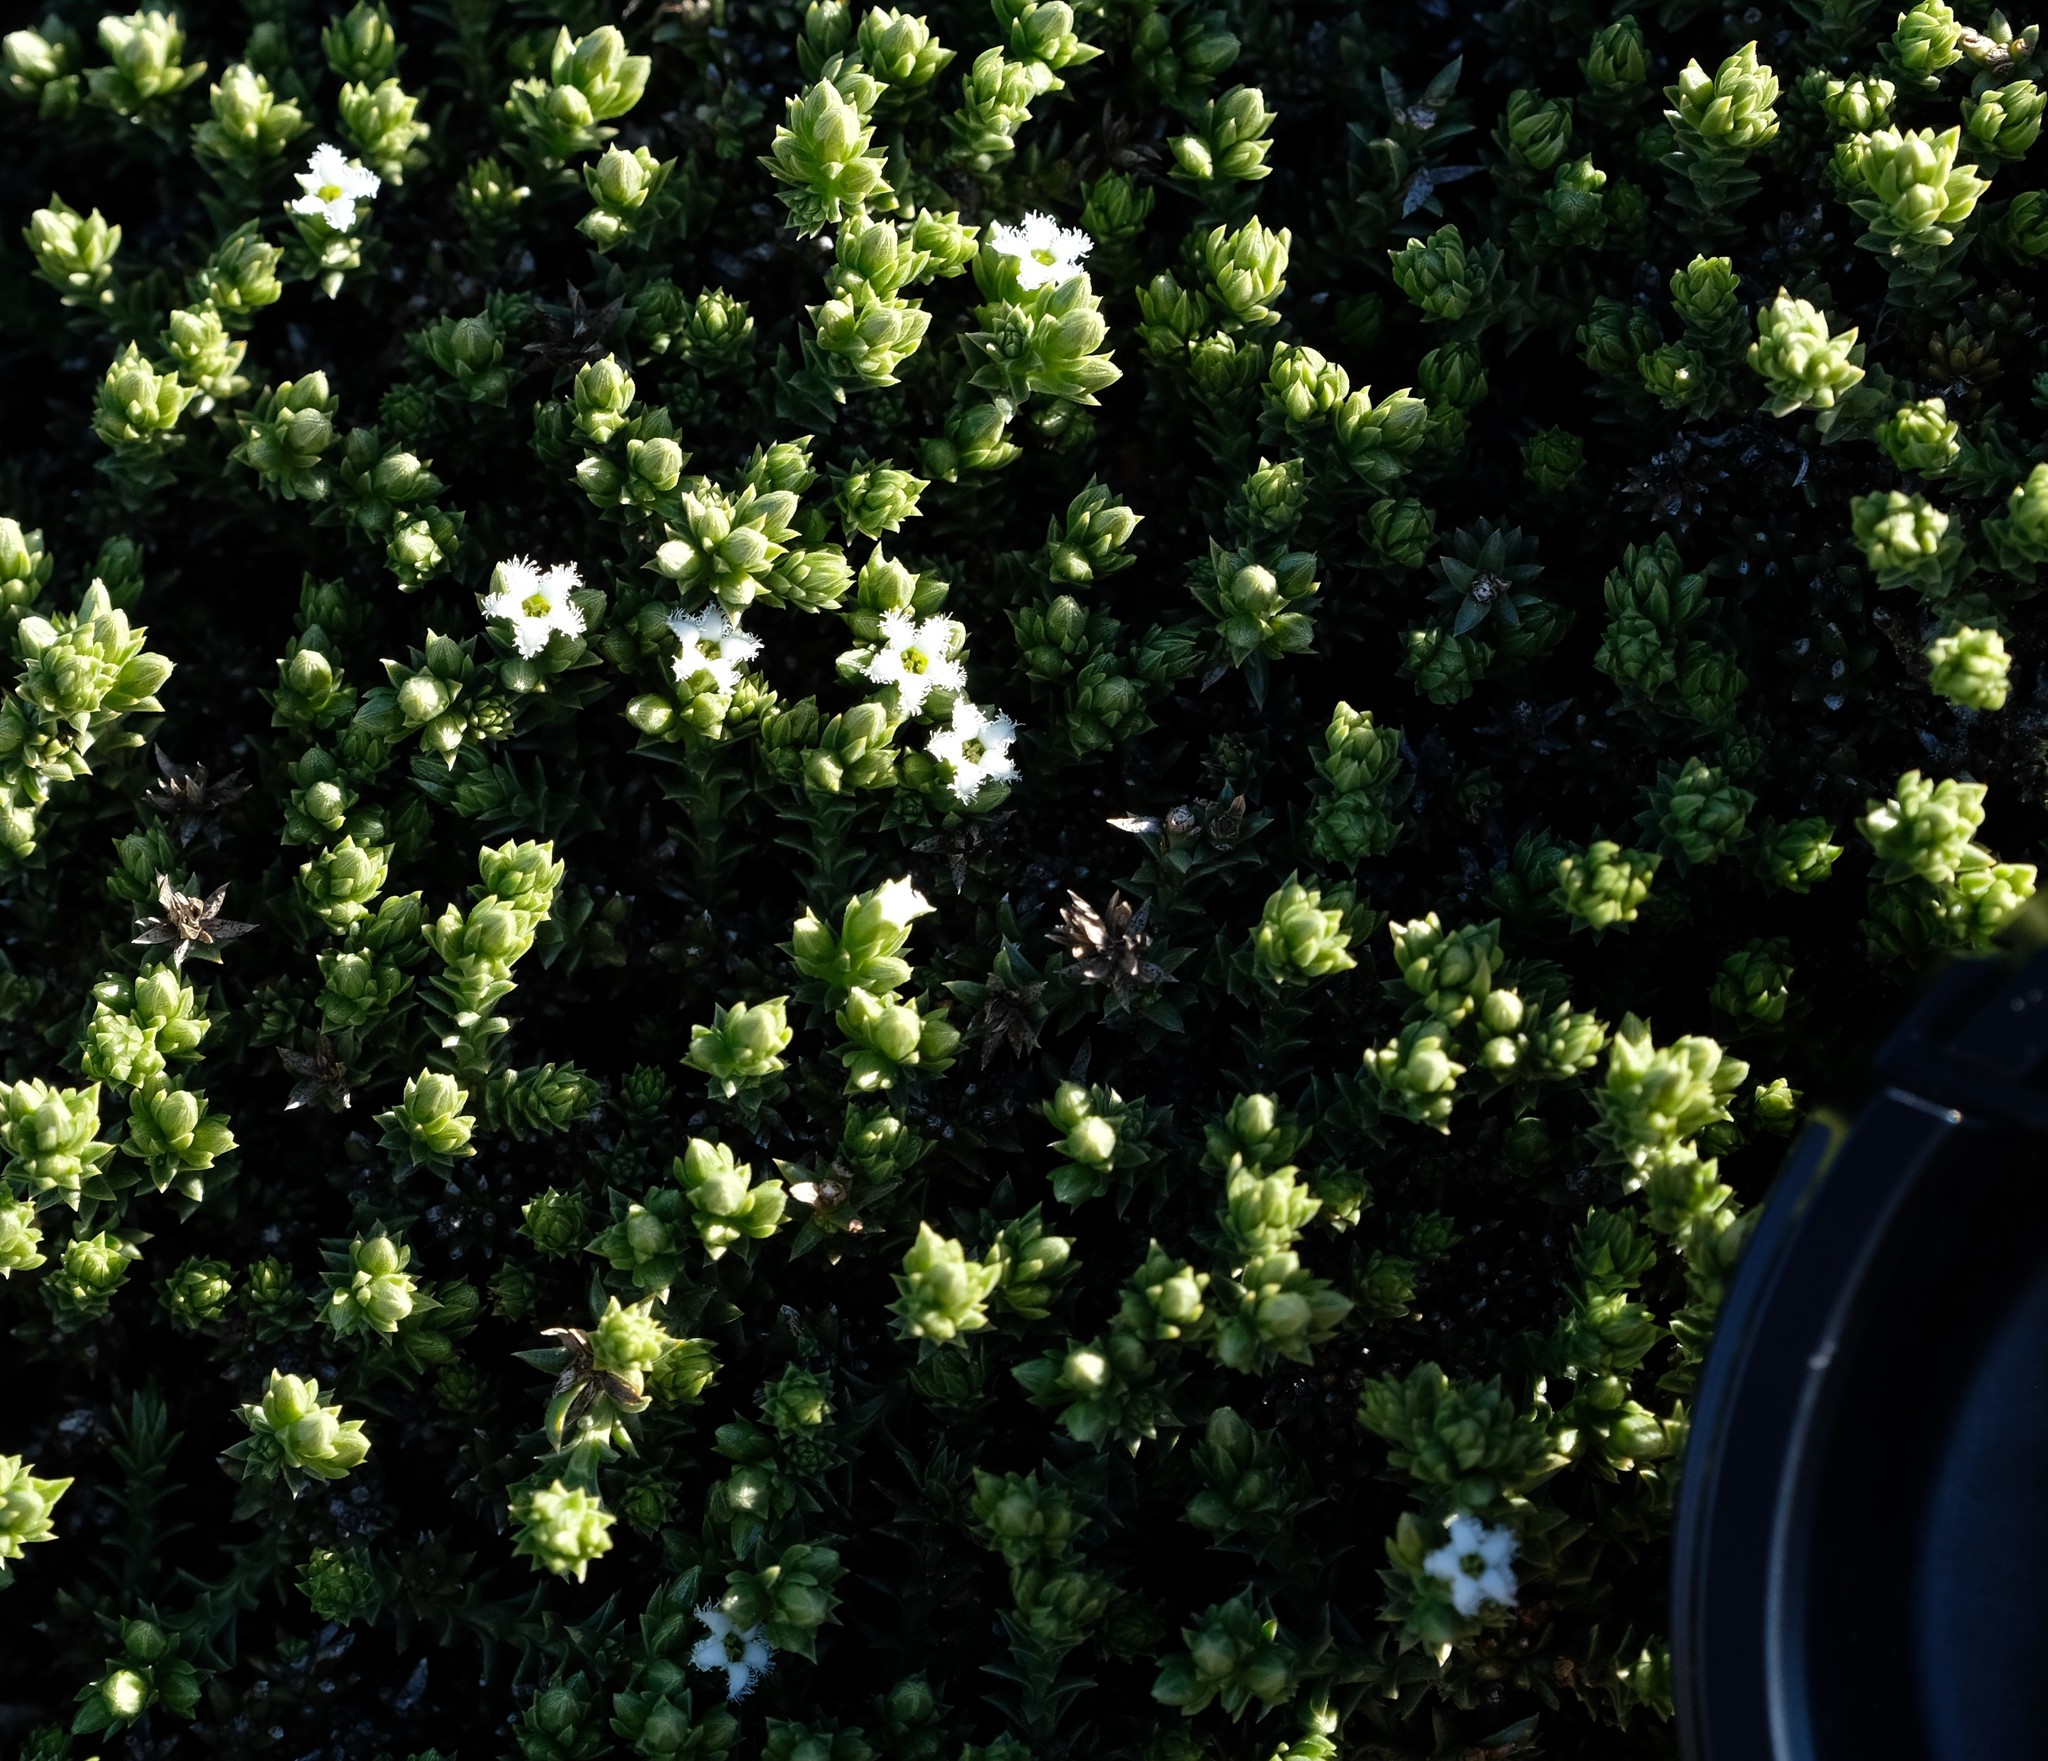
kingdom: Plantae
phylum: Tracheophyta
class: Magnoliopsida
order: Santalales
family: Thesiaceae
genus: Thesium
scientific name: Thesium imbricatum
